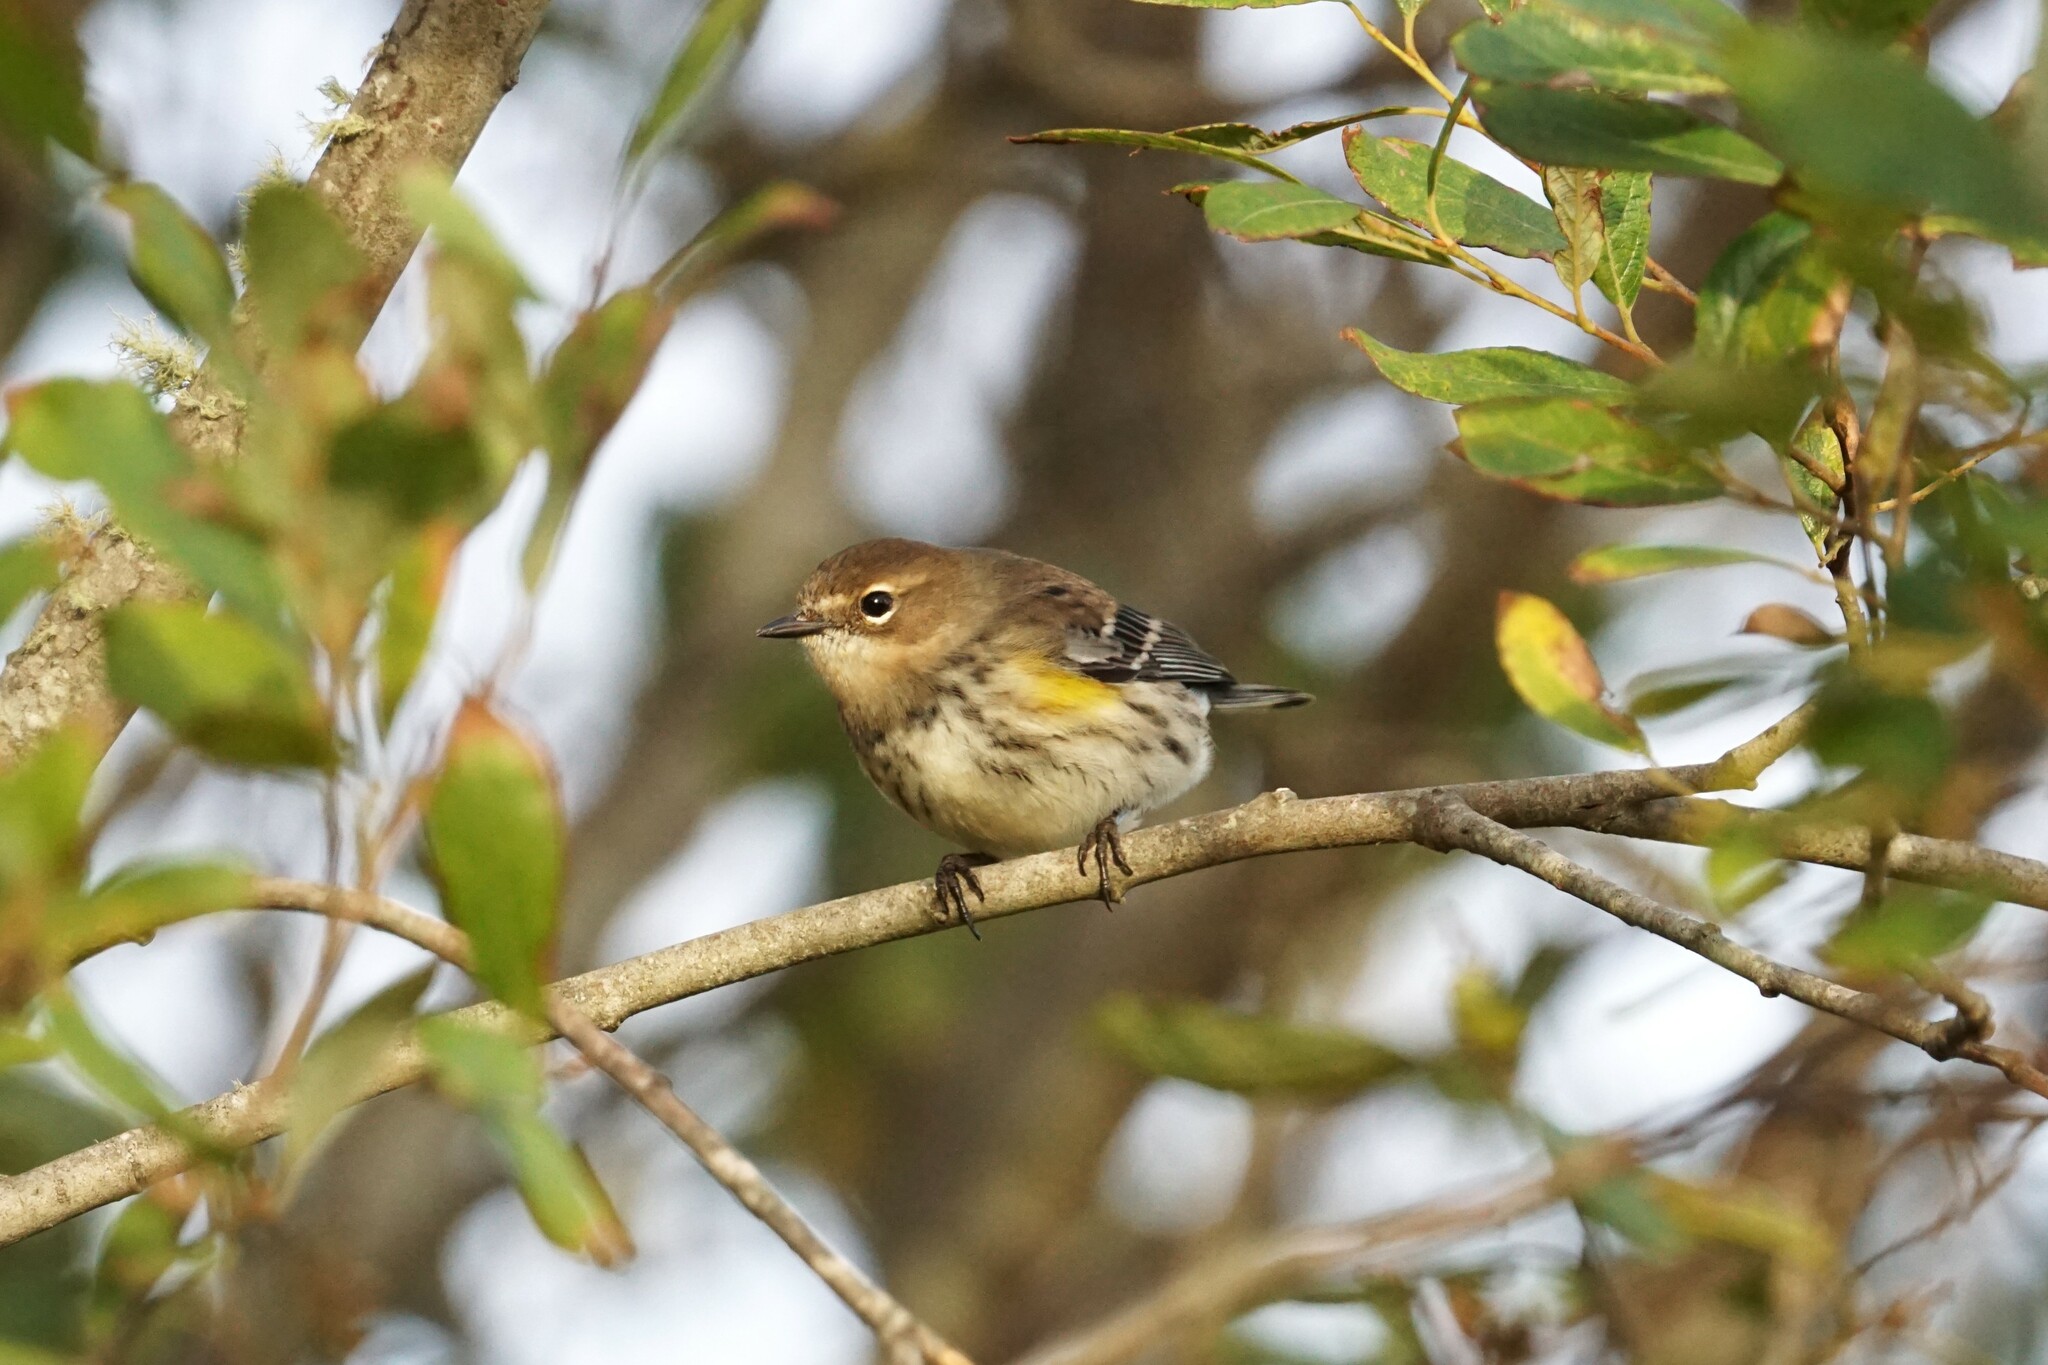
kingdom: Animalia
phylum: Chordata
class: Aves
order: Passeriformes
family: Parulidae
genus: Setophaga
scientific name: Setophaga coronata
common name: Myrtle warbler
